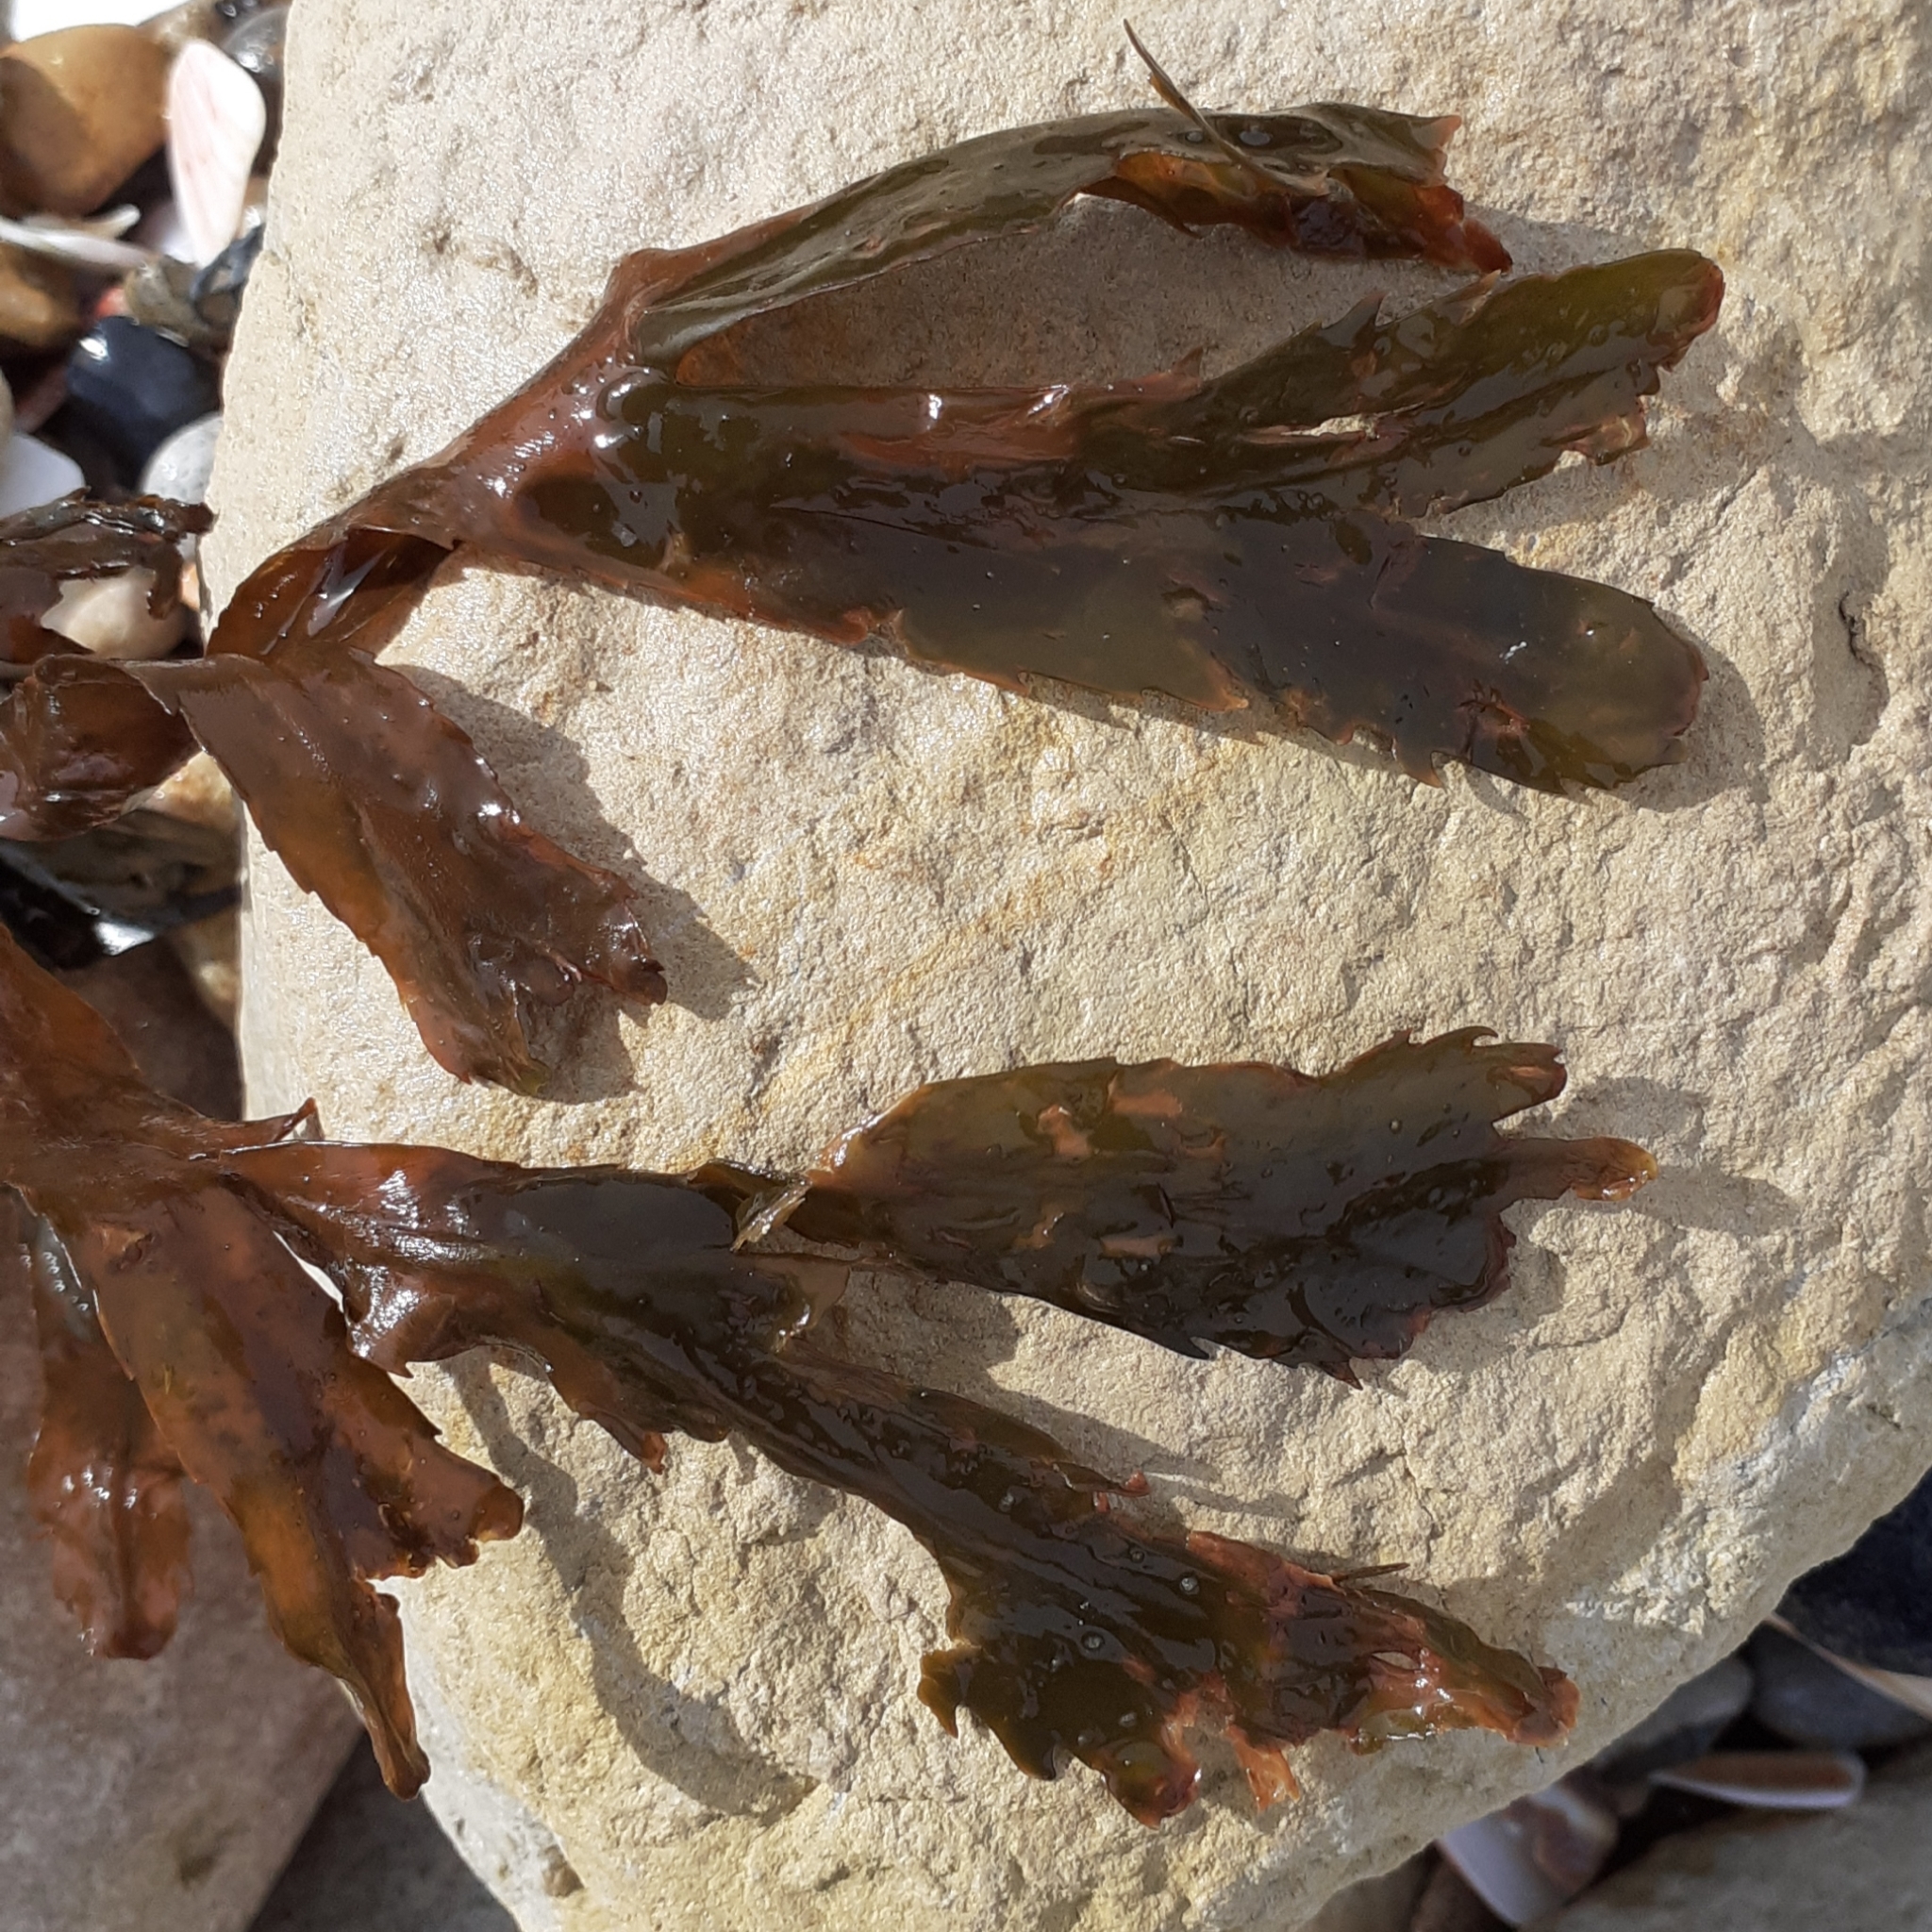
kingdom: Chromista
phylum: Ochrophyta
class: Phaeophyceae
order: Fucales
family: Fucaceae
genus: Fucus
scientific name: Fucus serratus
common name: Toothed wrack
